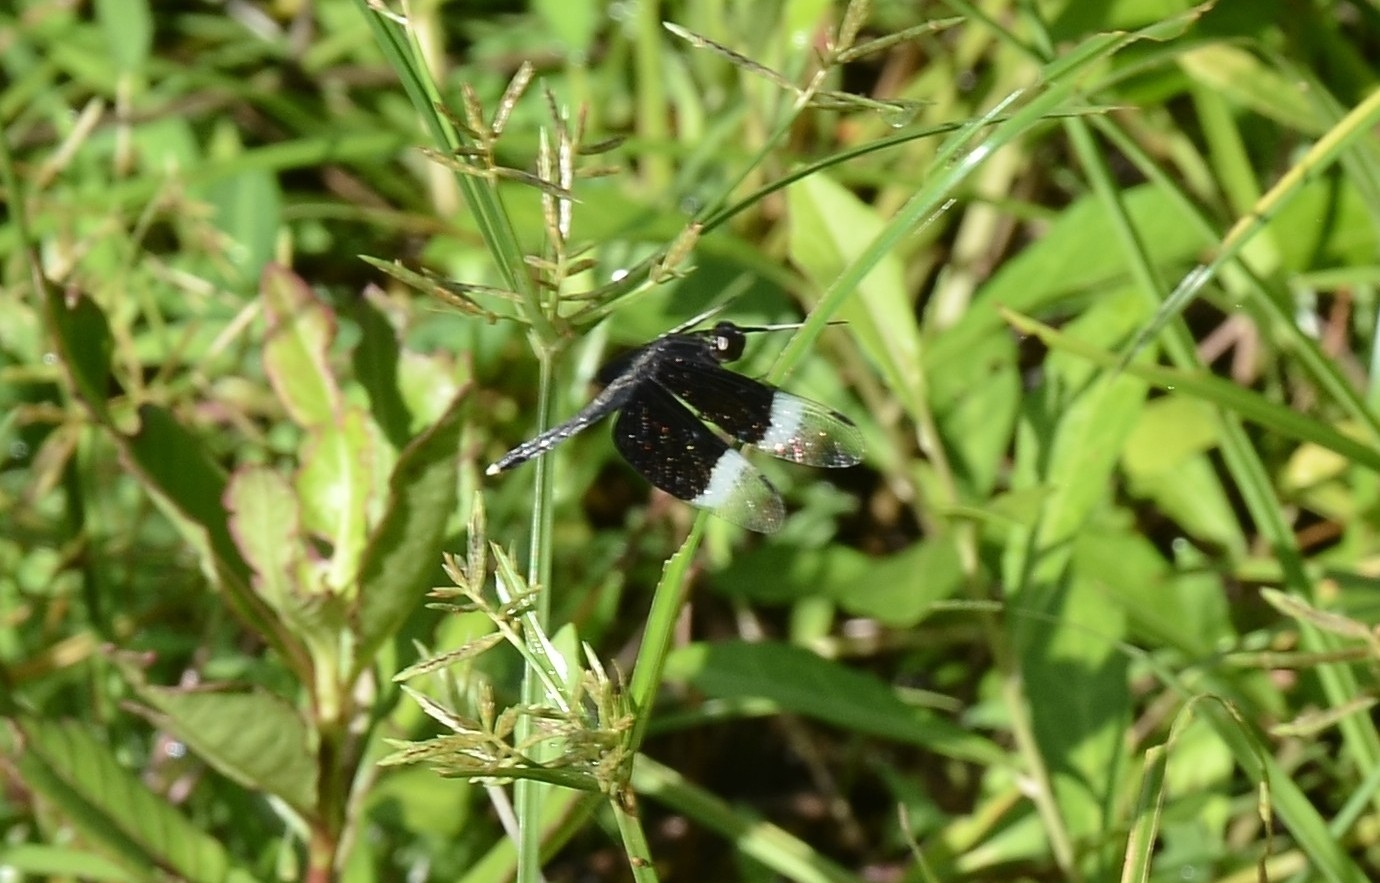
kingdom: Animalia
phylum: Arthropoda
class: Insecta
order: Odonata
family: Libellulidae
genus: Neurothemis
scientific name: Neurothemis tullia
